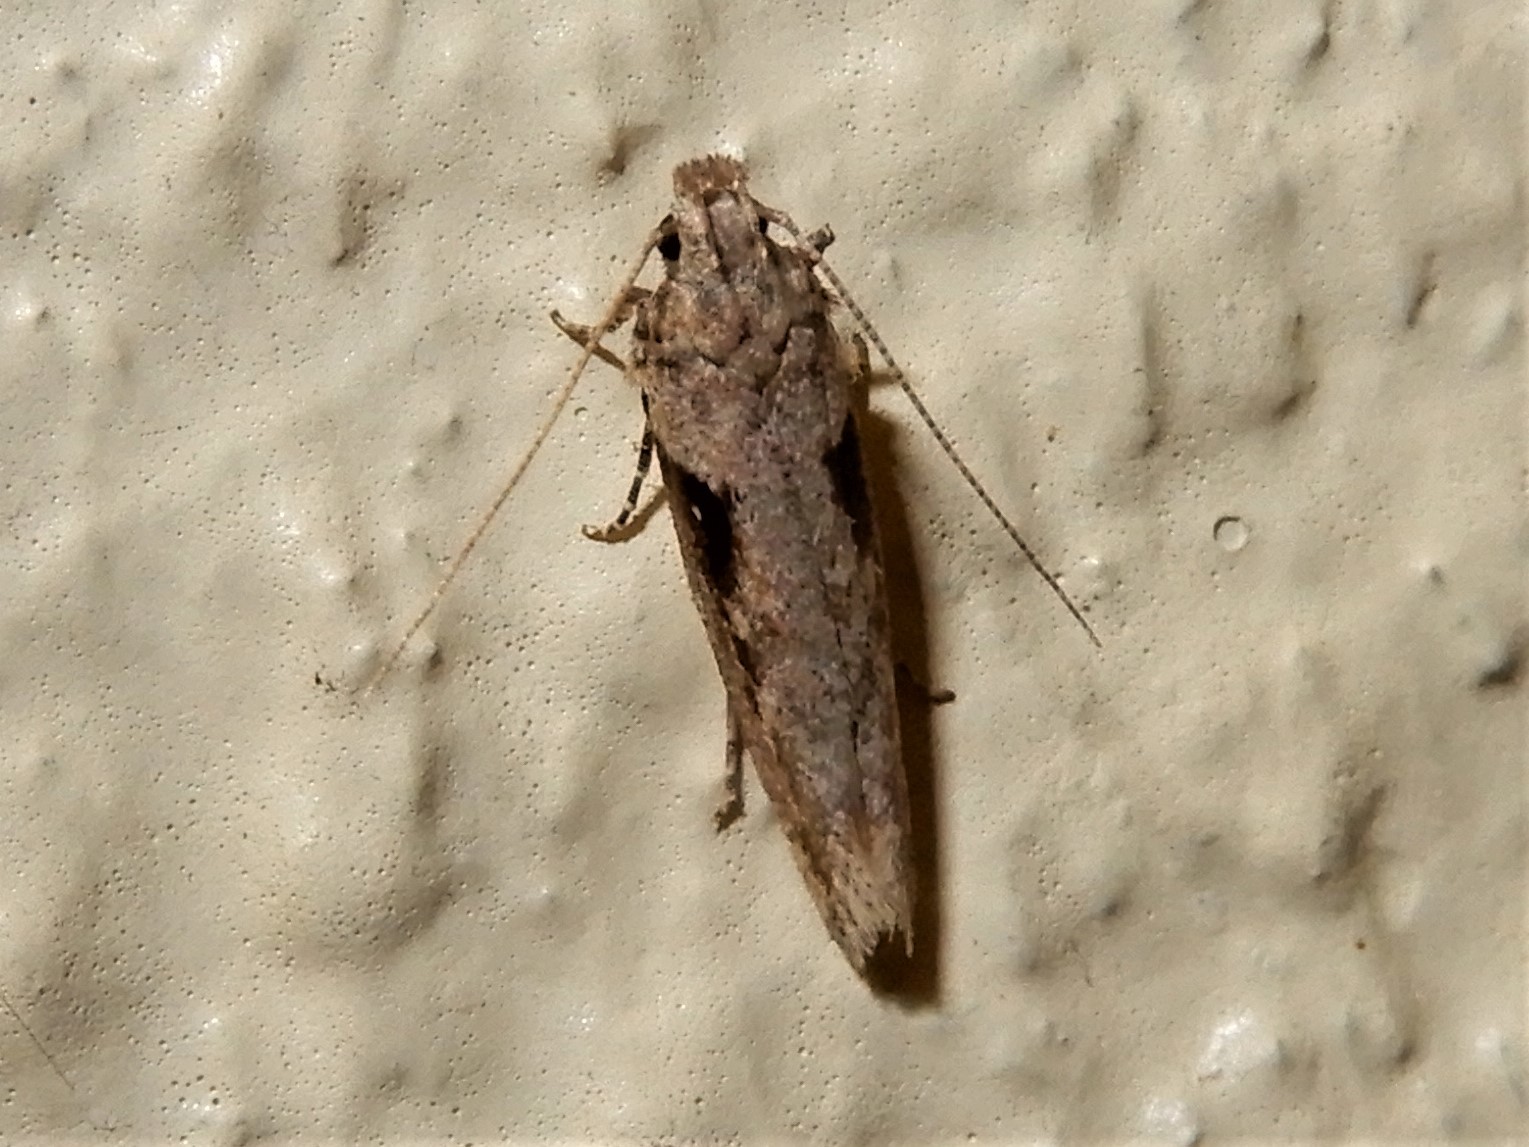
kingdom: Animalia
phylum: Arthropoda
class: Insecta
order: Lepidoptera
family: Gelechiidae
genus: Symmetrischema
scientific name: Symmetrischema tangolias
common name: Moth
